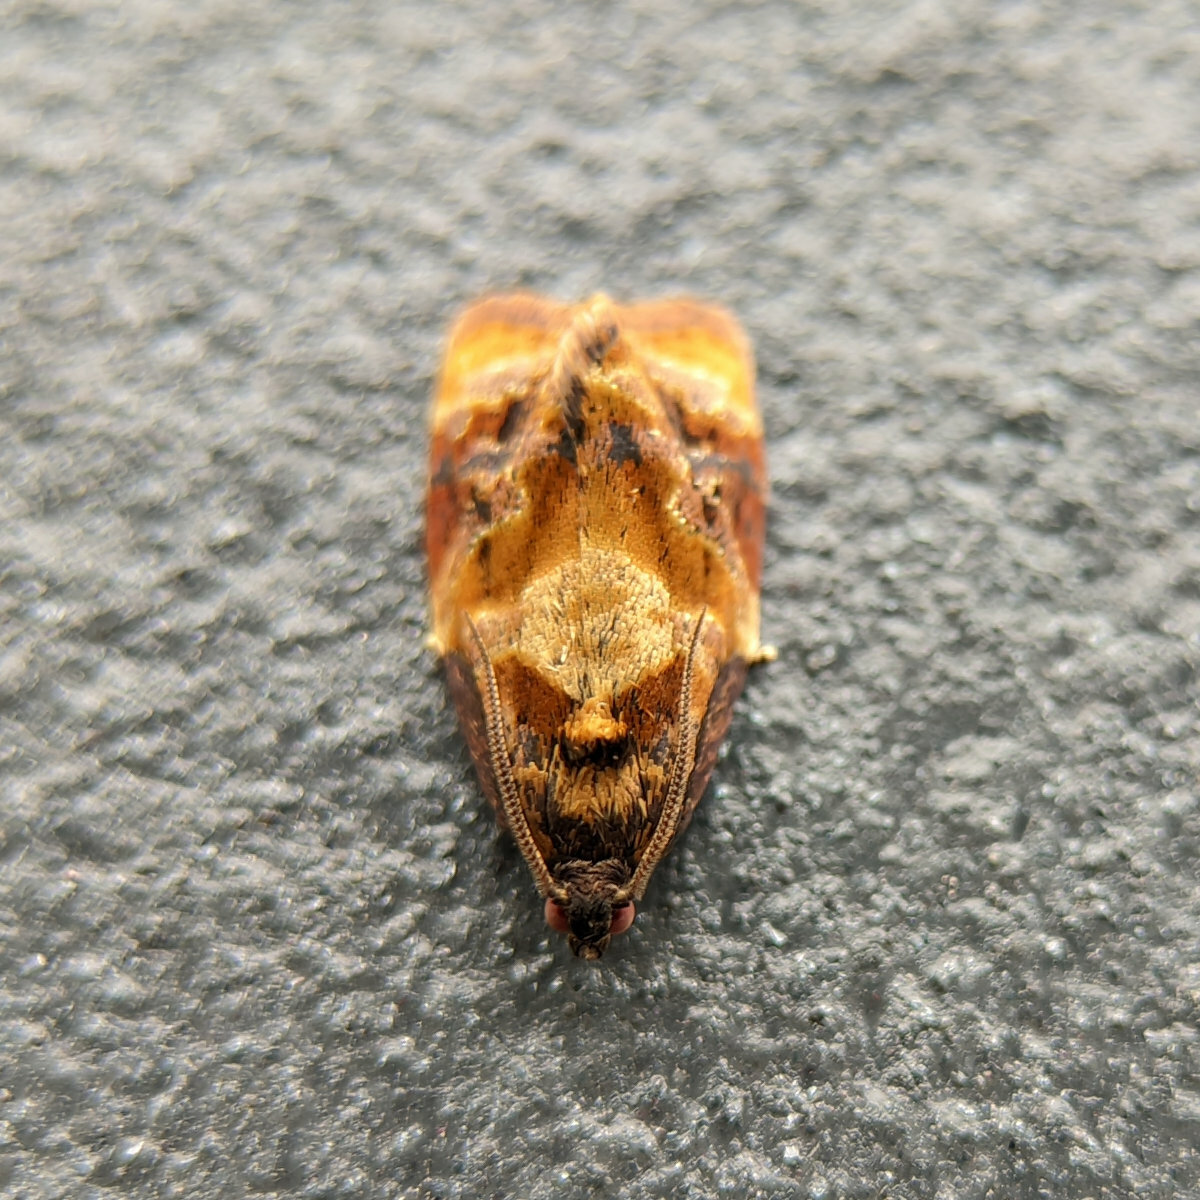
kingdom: Animalia
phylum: Arthropoda
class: Insecta
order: Lepidoptera
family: Tortricidae
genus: Ditula
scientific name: Ditula angustiorana
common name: Red-barred tortrix
